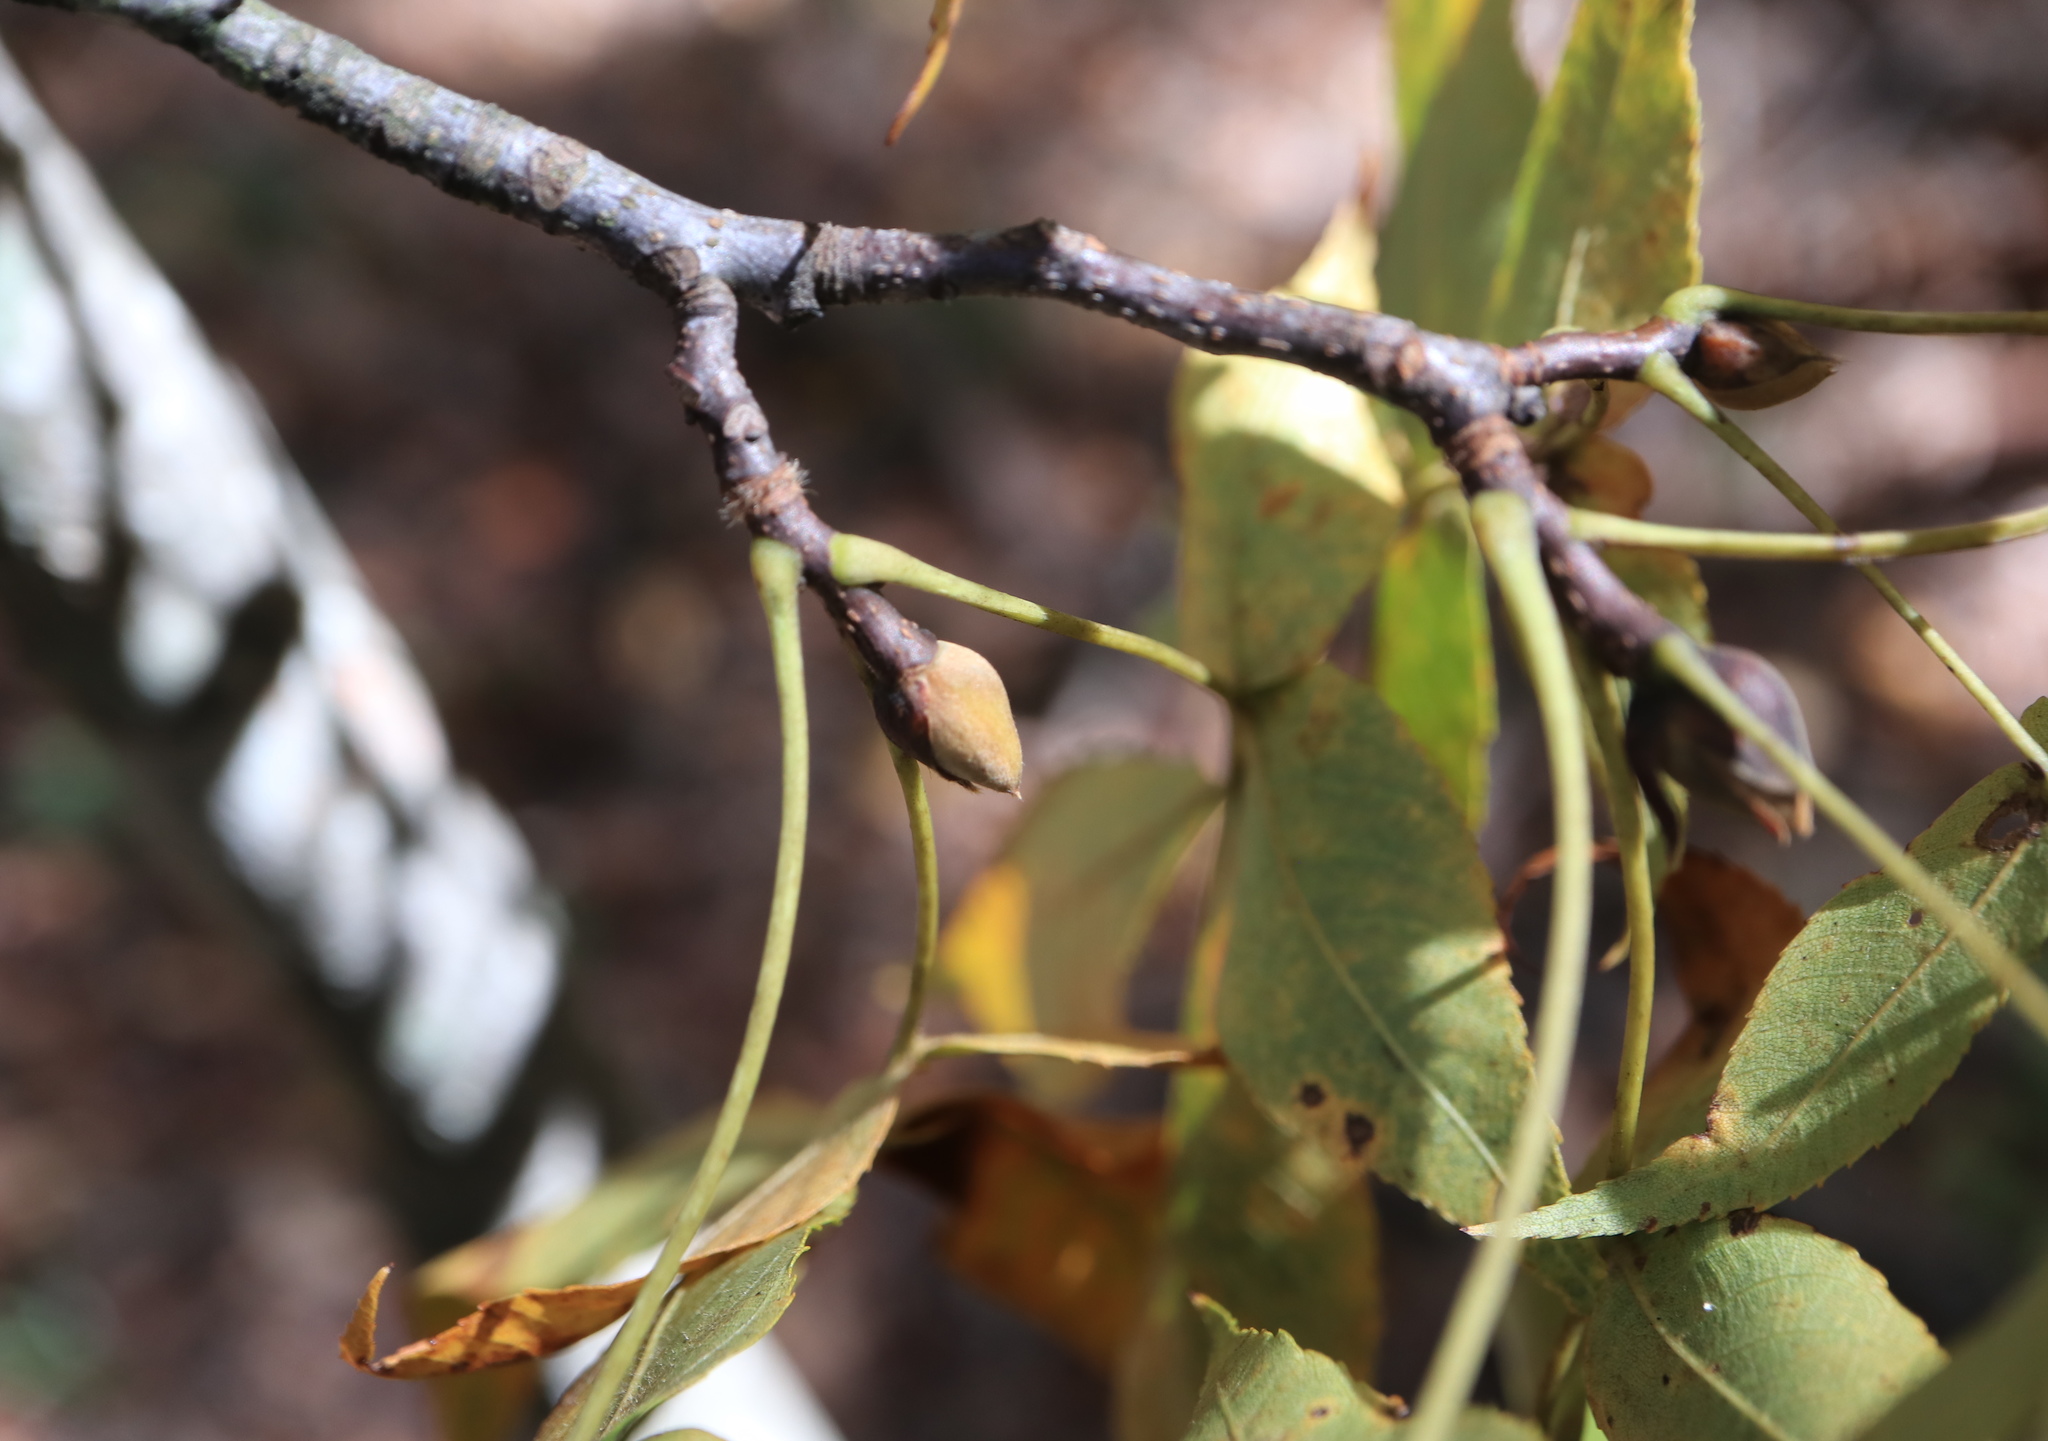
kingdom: Plantae
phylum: Tracheophyta
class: Magnoliopsida
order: Fagales
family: Juglandaceae
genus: Carya
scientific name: Carya glabra
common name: Pignut hickory
